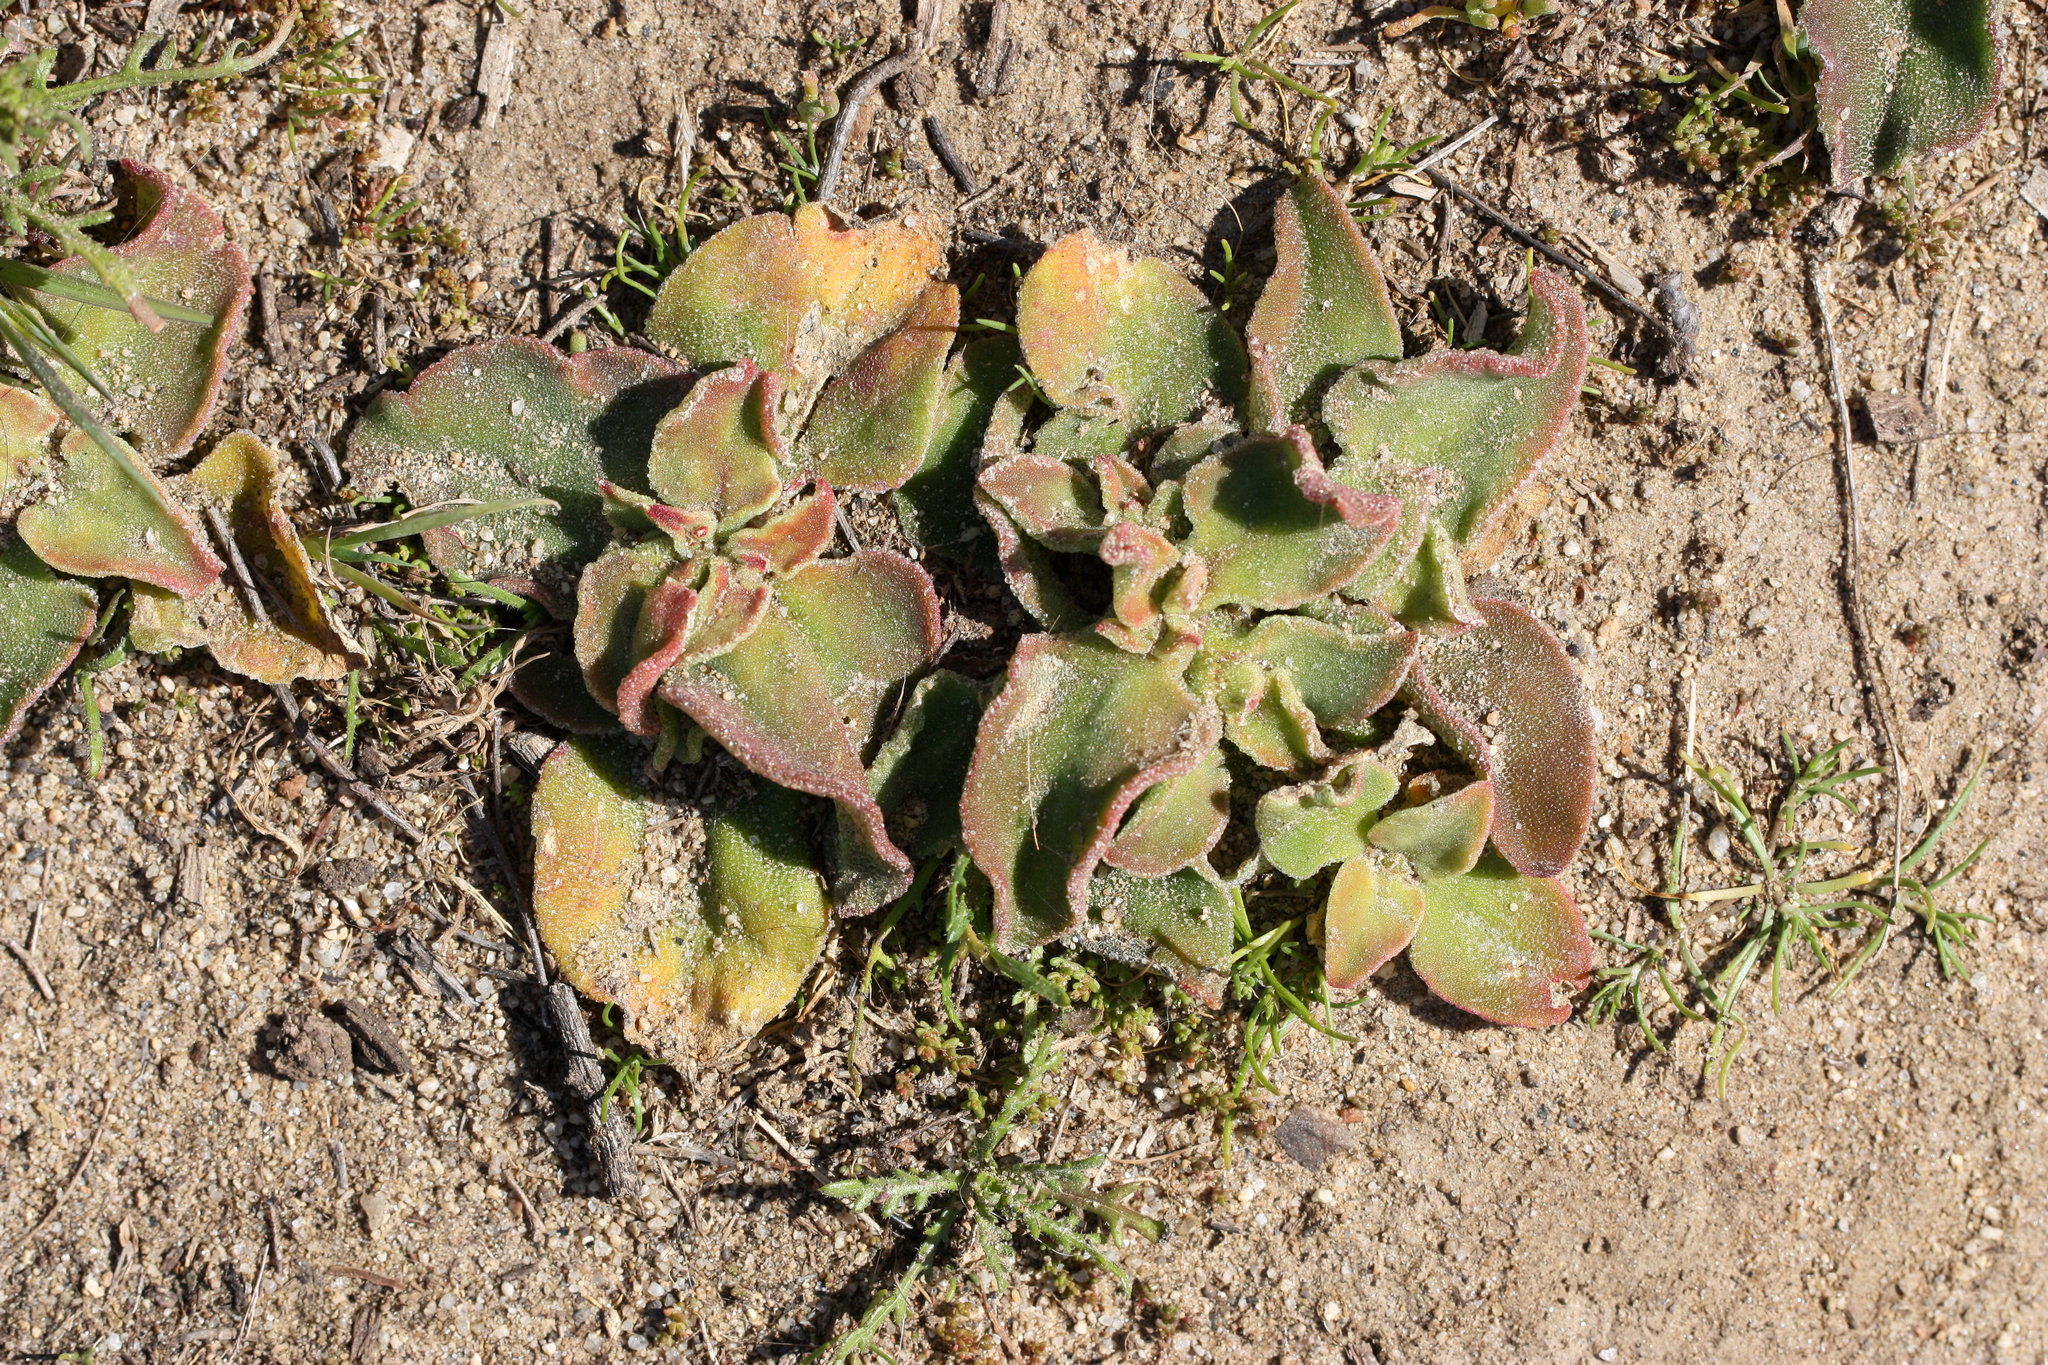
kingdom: Plantae
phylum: Tracheophyta
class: Magnoliopsida
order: Caryophyllales
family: Aizoaceae
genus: Mesembryanthemum
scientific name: Mesembryanthemum crystallinum
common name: Common iceplant
